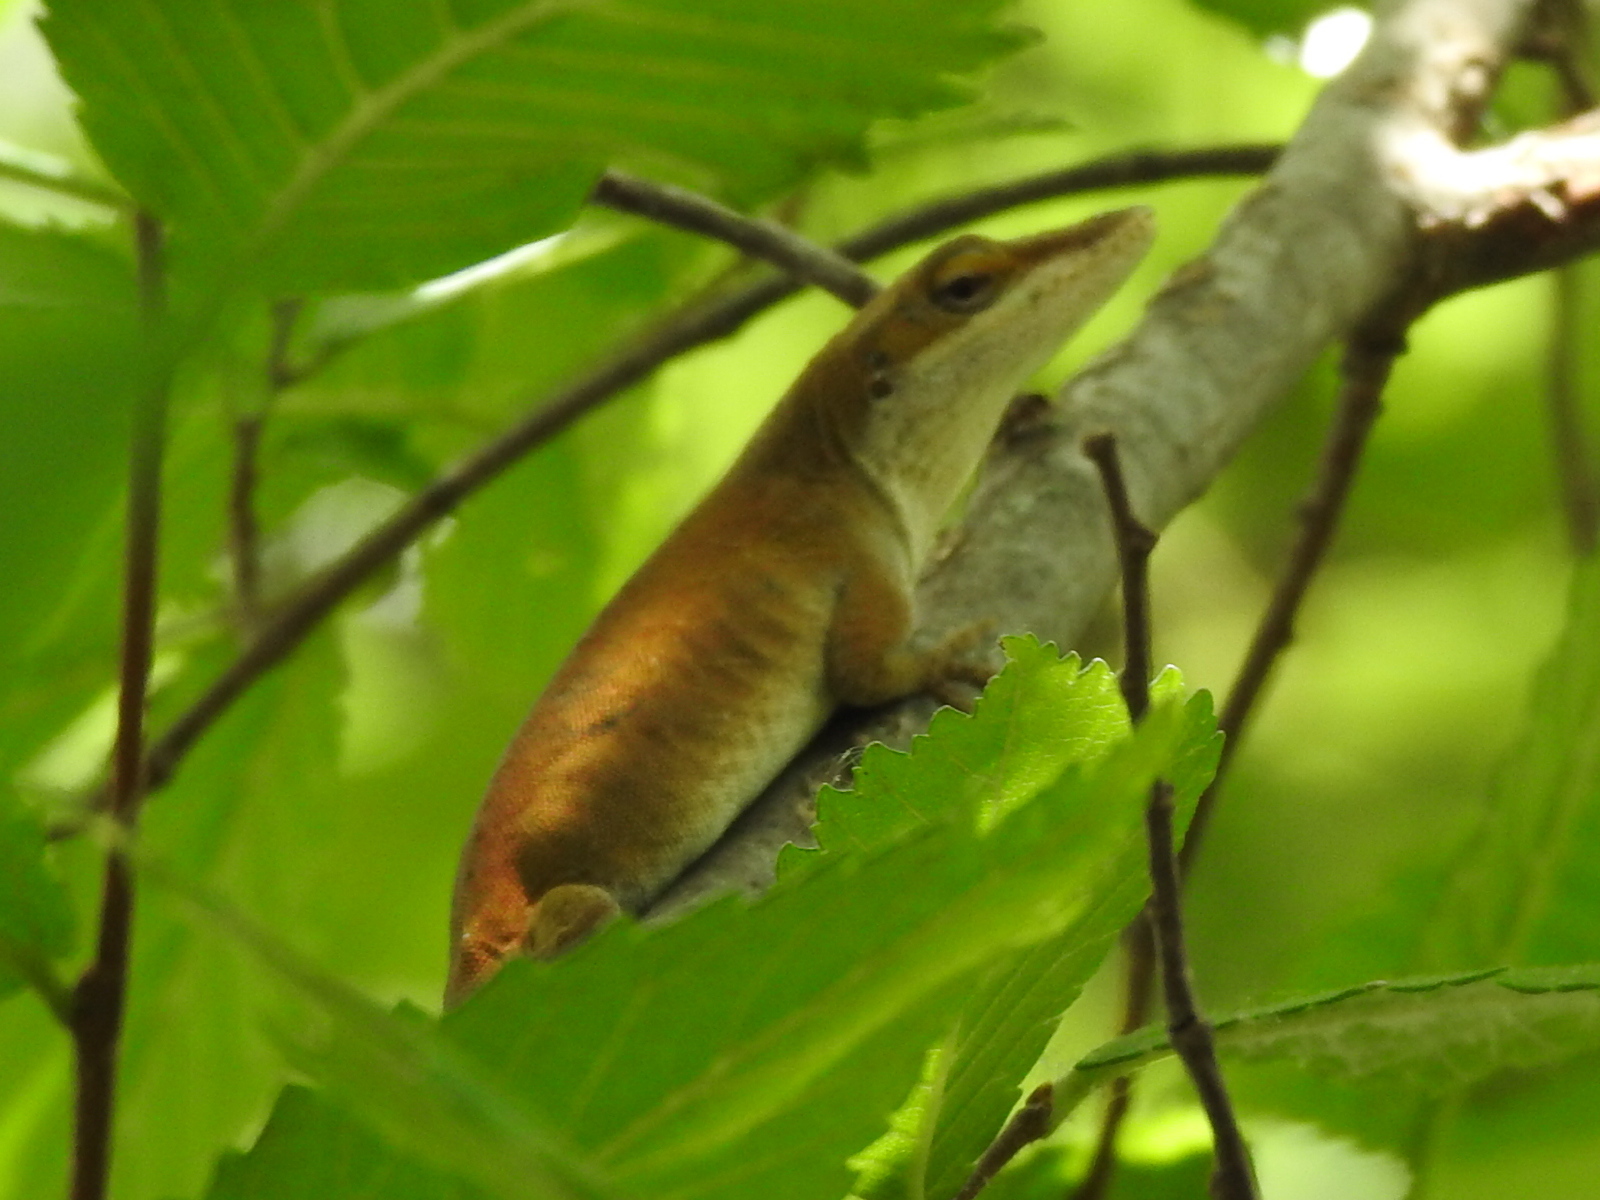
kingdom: Animalia
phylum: Chordata
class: Squamata
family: Dactyloidae
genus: Anolis
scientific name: Anolis carolinensis
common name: Green anole
